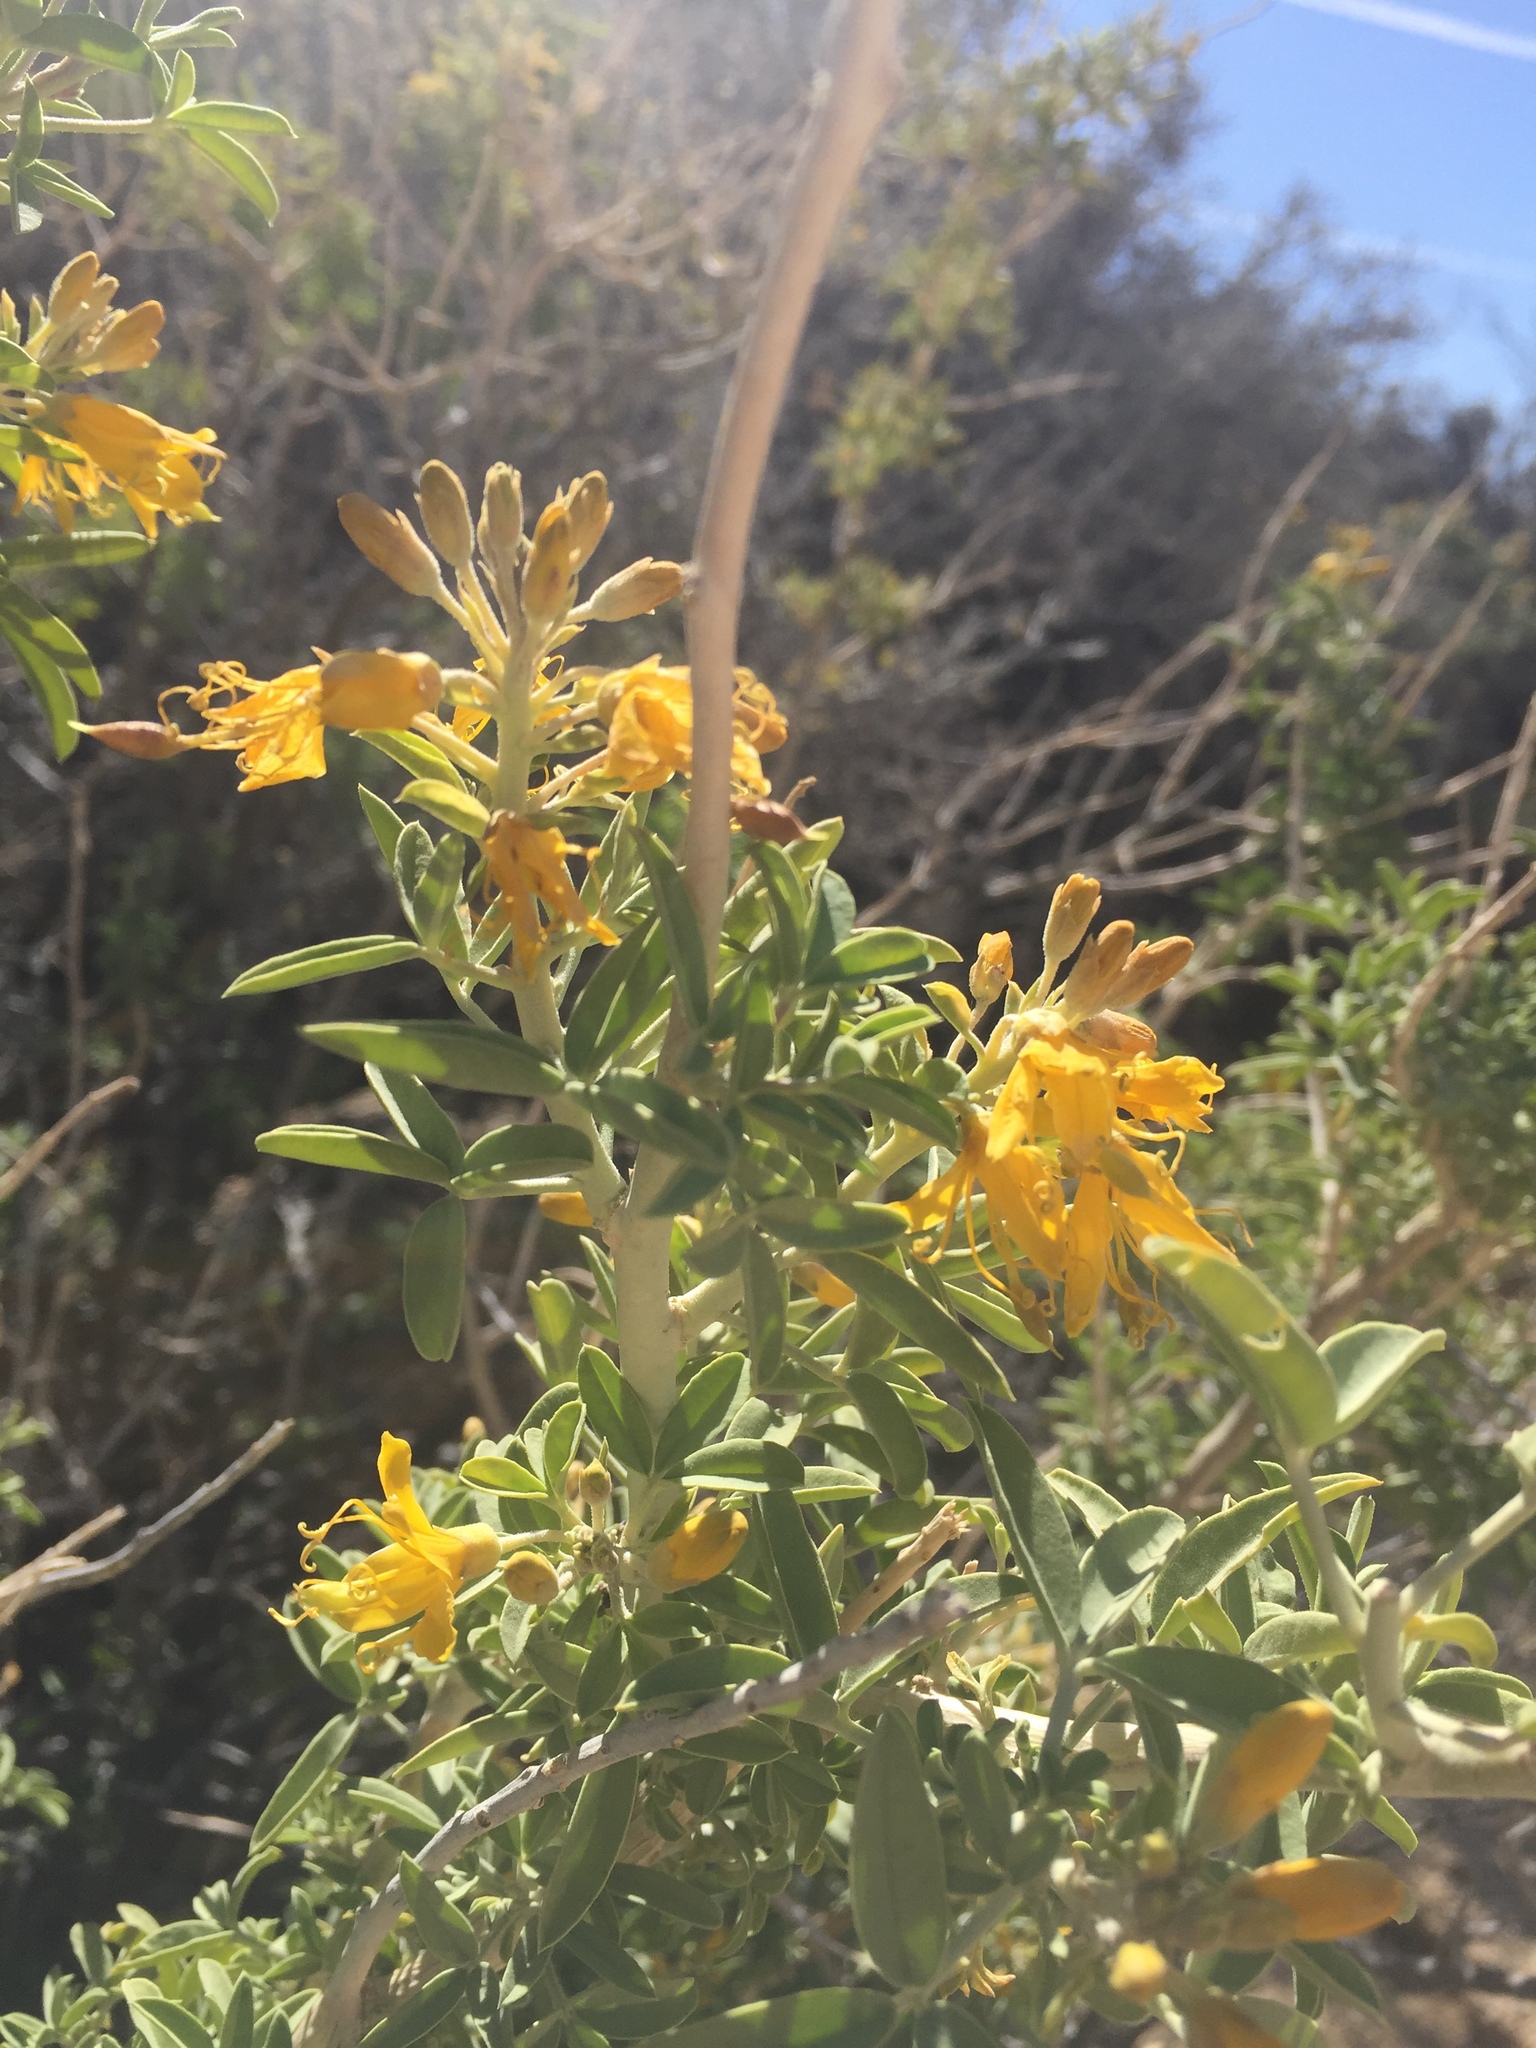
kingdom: Plantae
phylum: Tracheophyta
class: Magnoliopsida
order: Brassicales
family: Cleomaceae
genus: Cleomella
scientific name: Cleomella arborea
